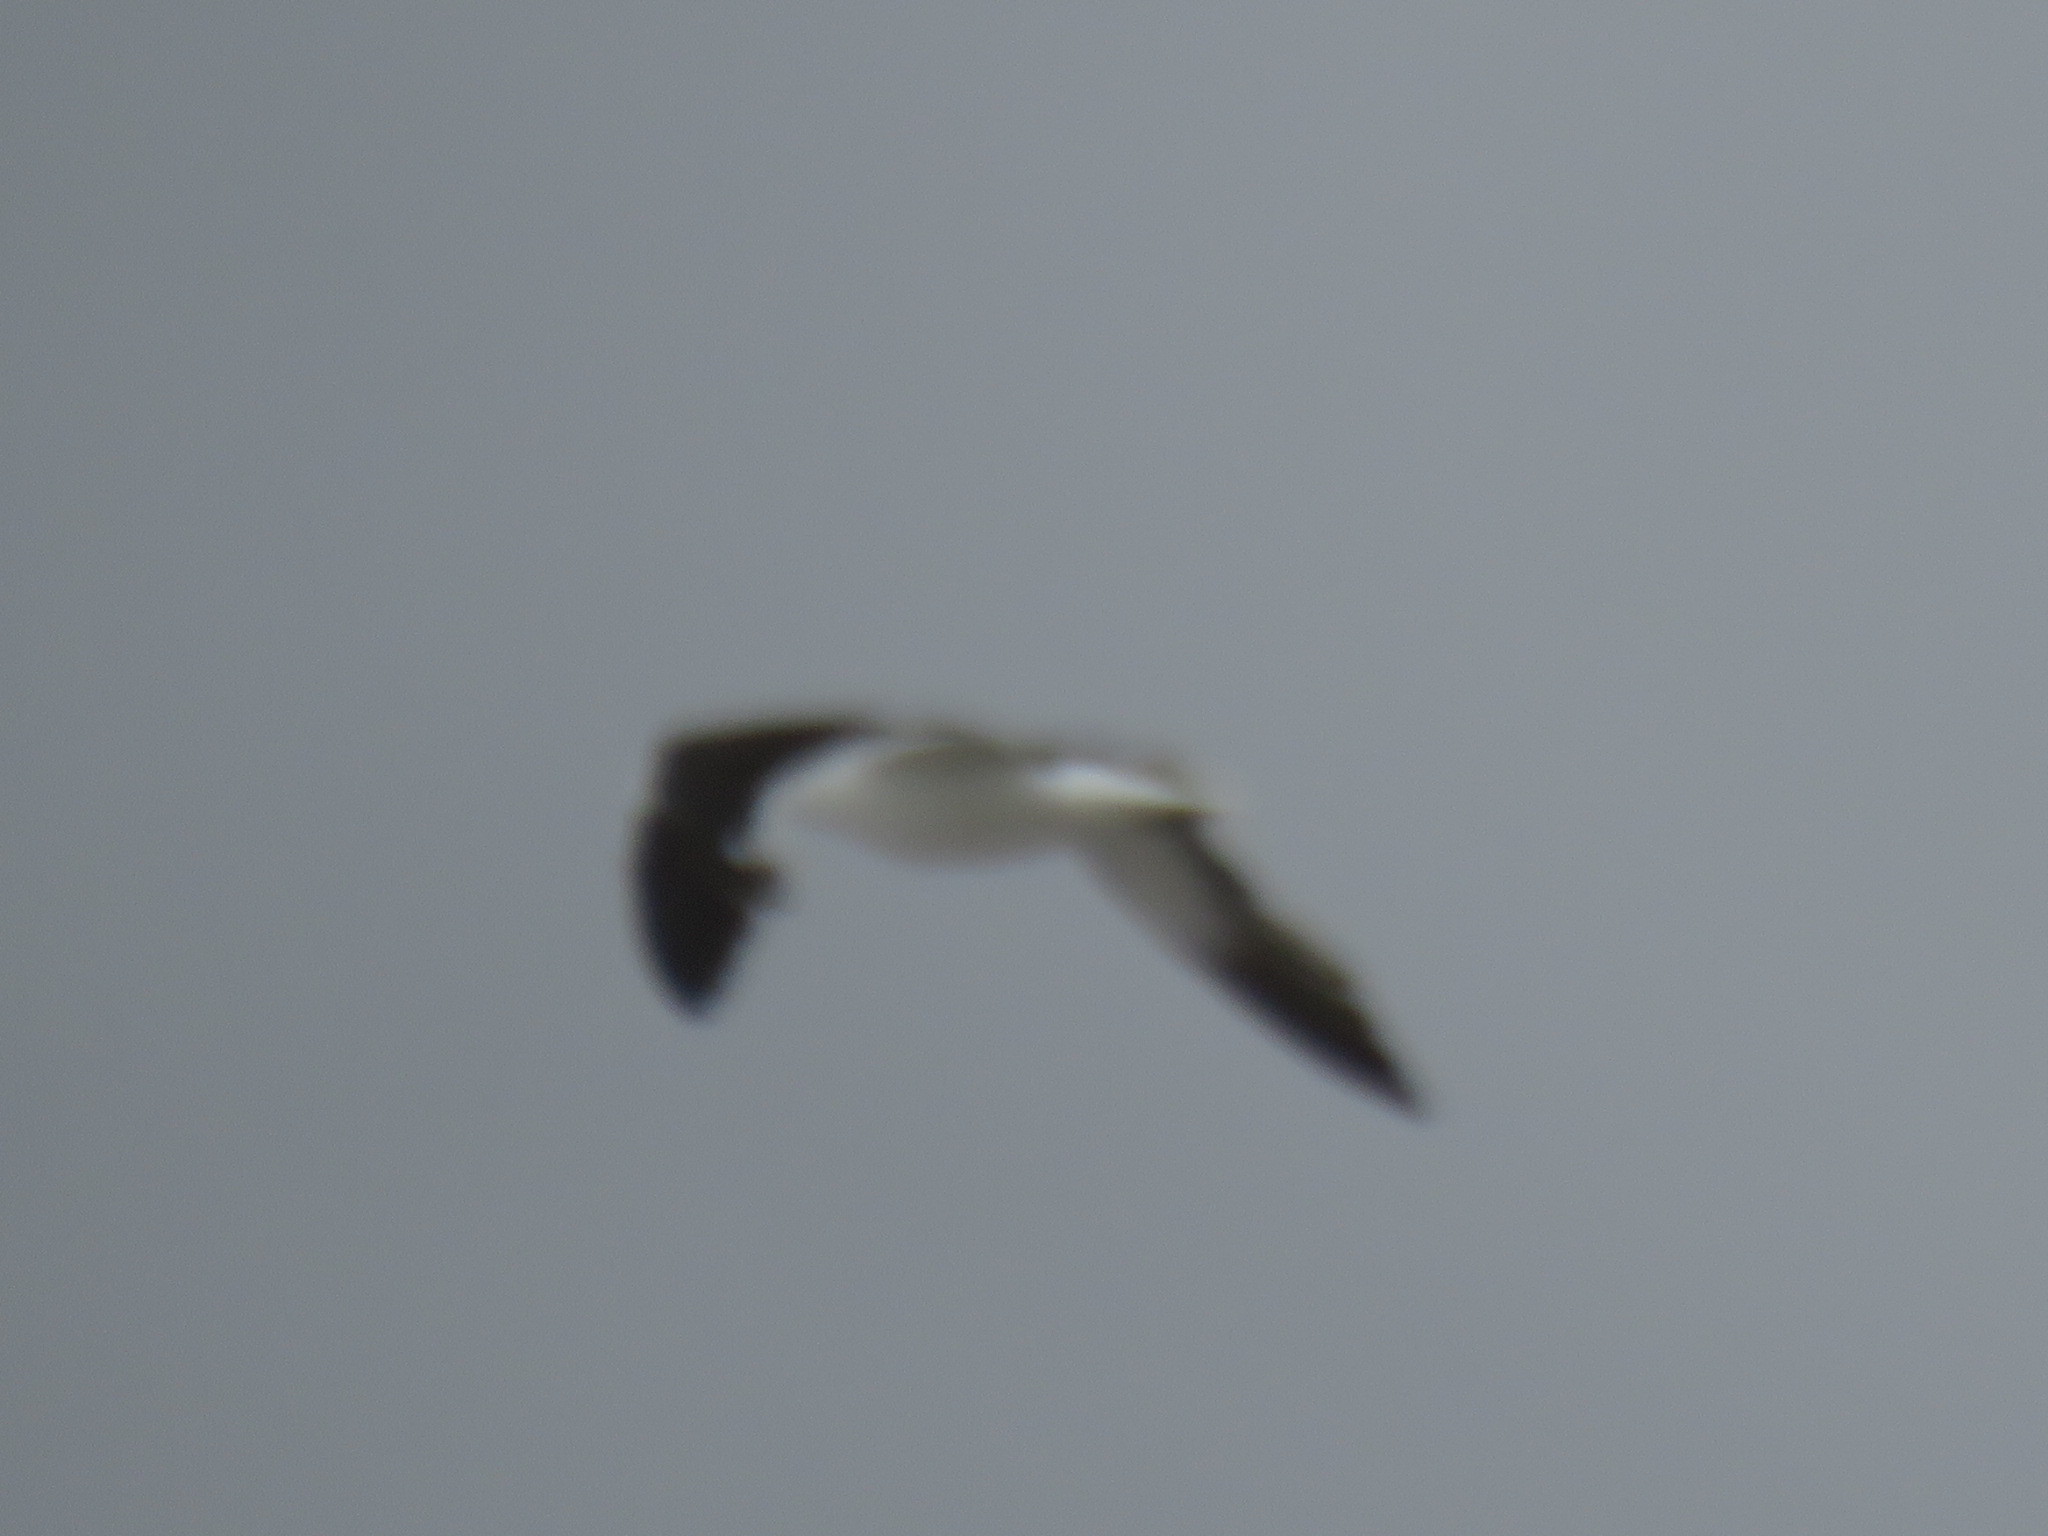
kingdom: Animalia
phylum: Chordata
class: Aves
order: Charadriiformes
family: Laridae
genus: Larus
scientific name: Larus dominicanus
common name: Kelp gull
